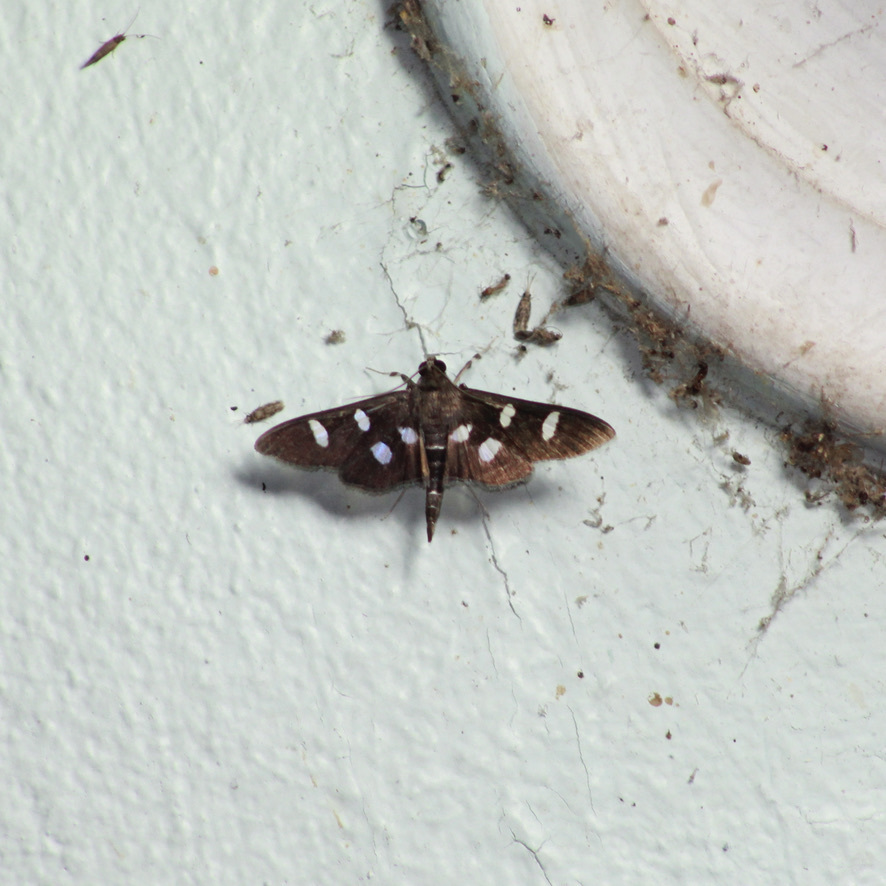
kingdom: Animalia
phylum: Arthropoda
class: Insecta
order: Lepidoptera
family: Crambidae
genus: Desmia
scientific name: Desmia octomaculalis
